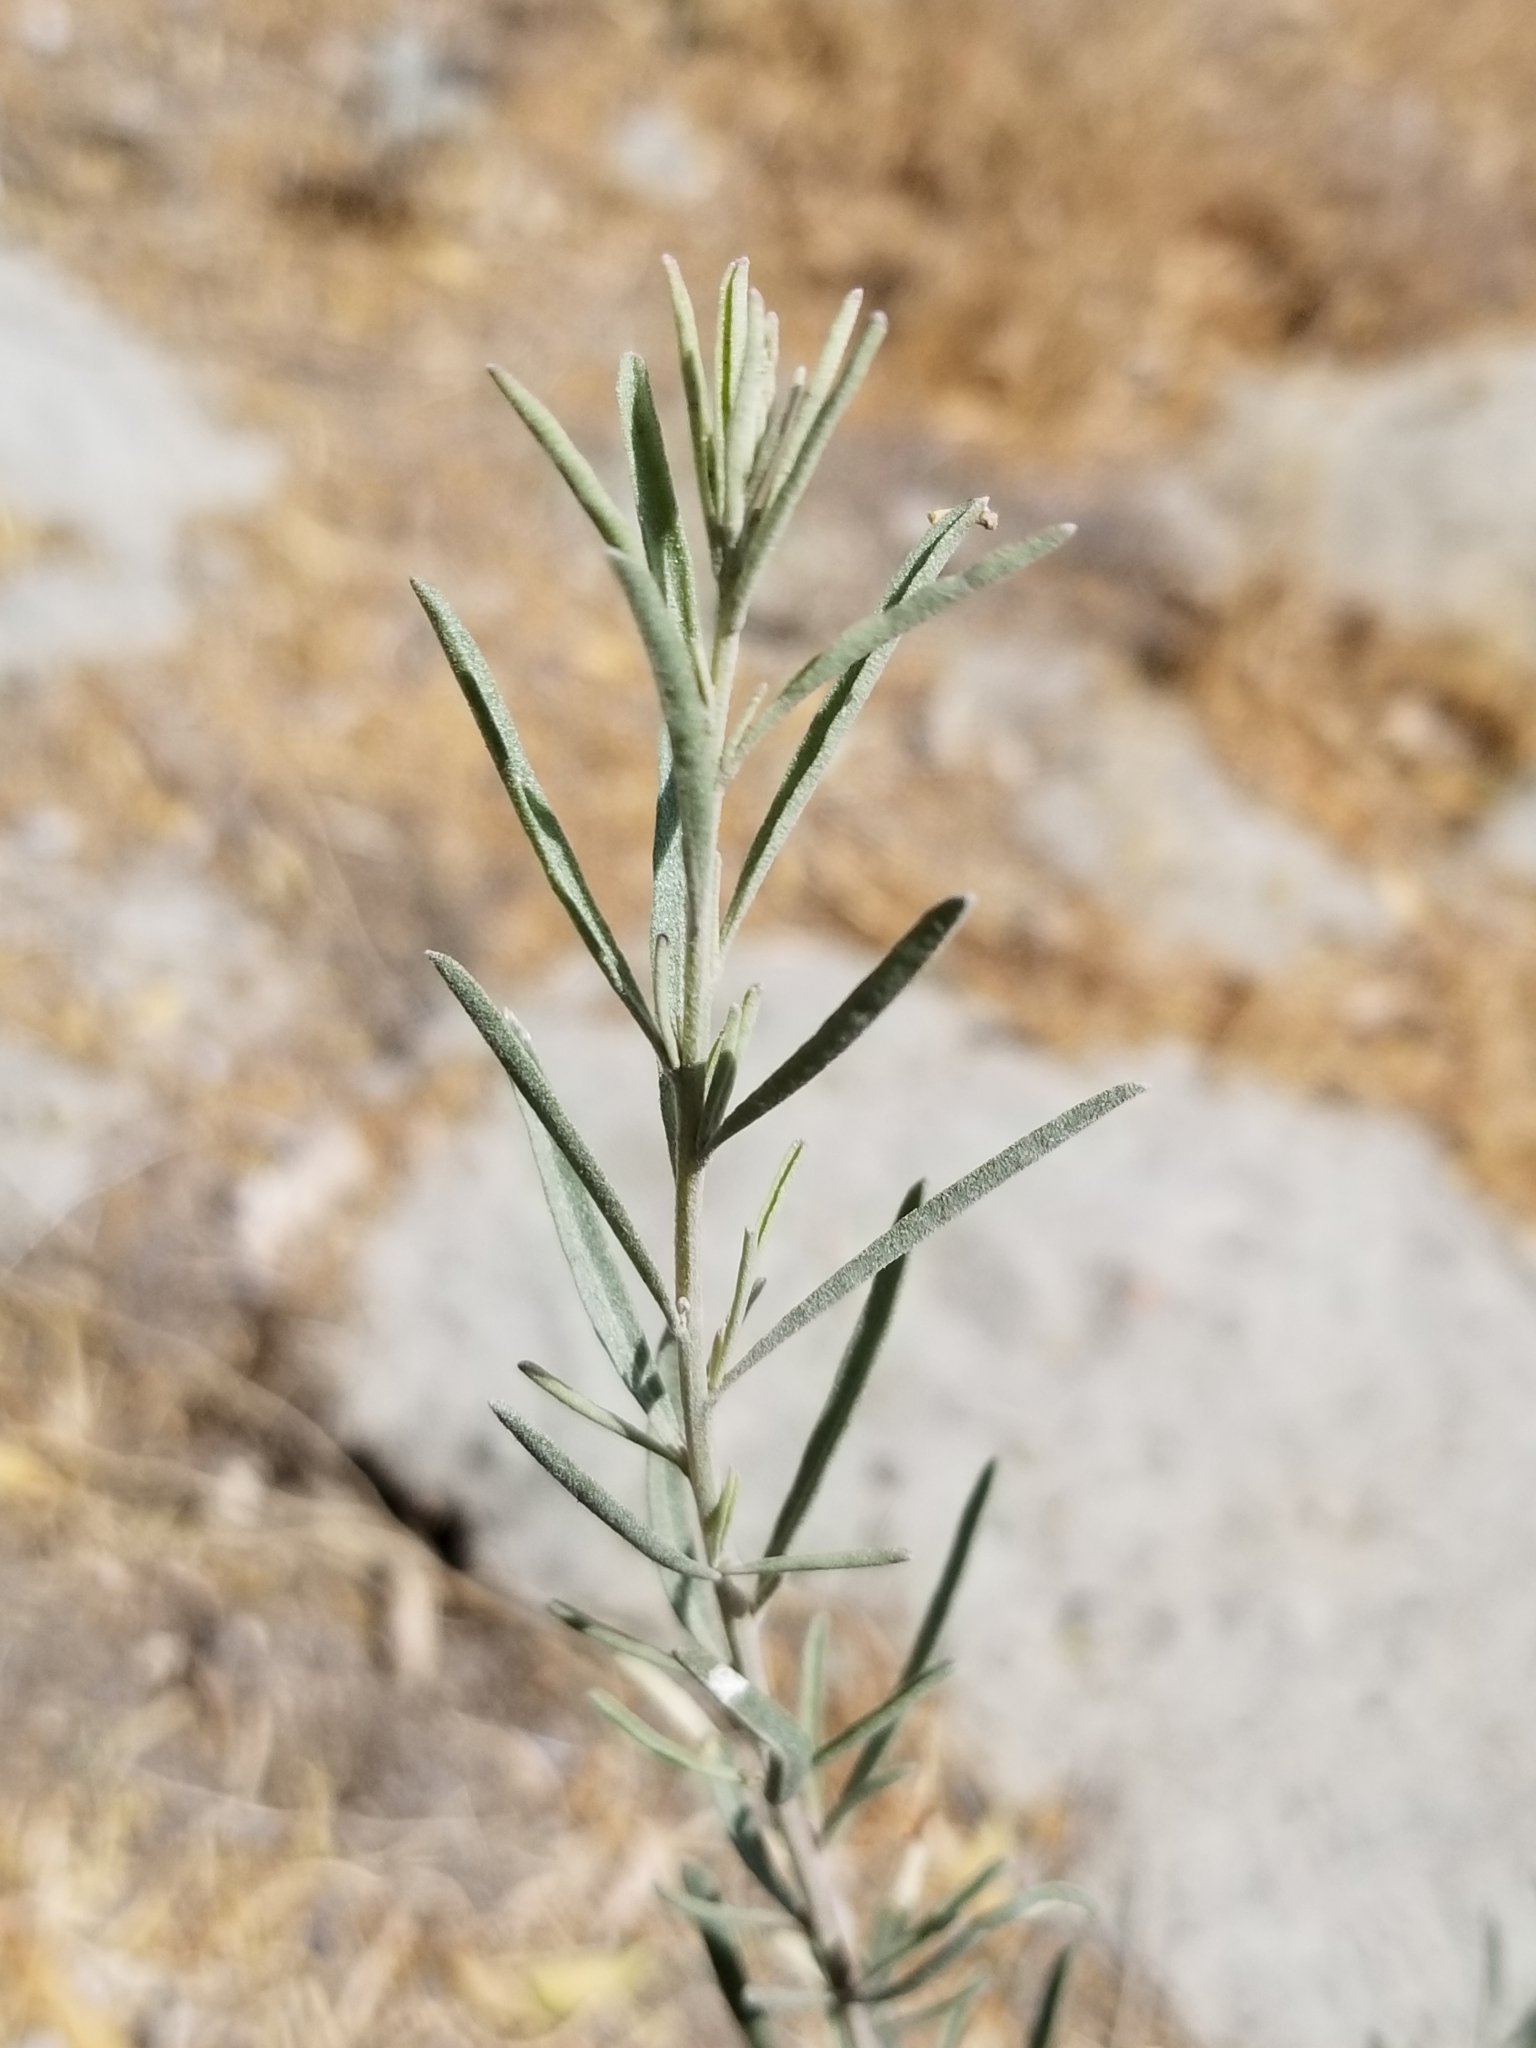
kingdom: Plantae
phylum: Tracheophyta
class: Magnoliopsida
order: Caryophyllales
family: Amaranthaceae
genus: Atriplex
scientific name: Atriplex canescens
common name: Four-wing saltbush
